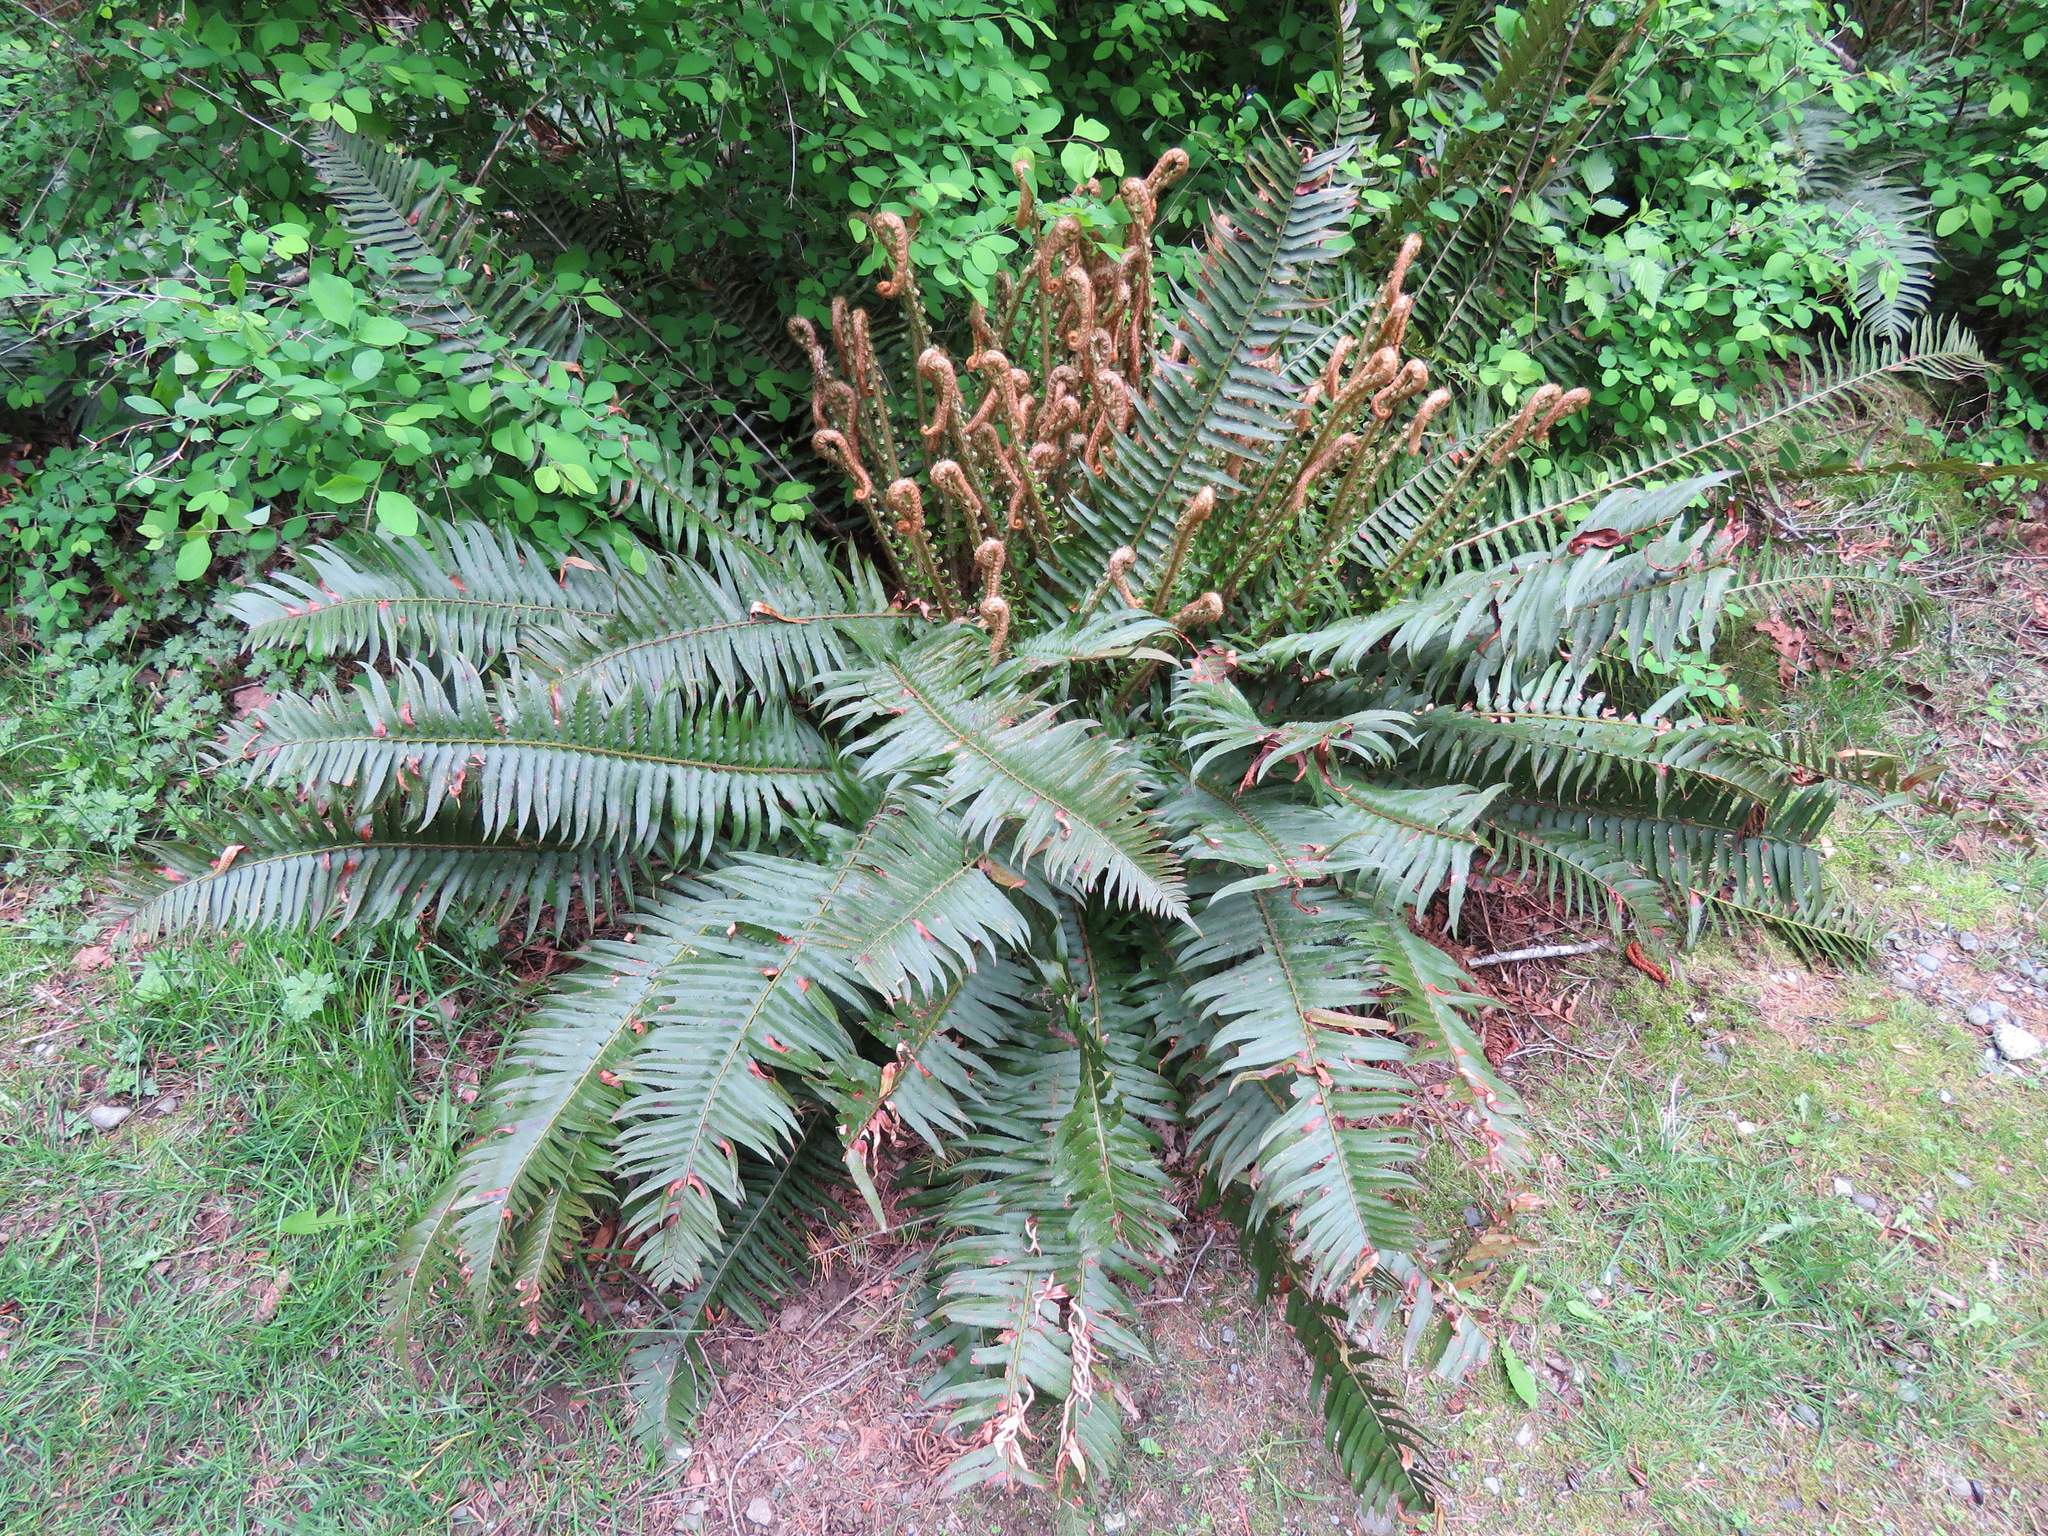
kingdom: Plantae
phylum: Tracheophyta
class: Polypodiopsida
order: Polypodiales
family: Dryopteridaceae
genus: Polystichum
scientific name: Polystichum munitum
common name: Western sword-fern
